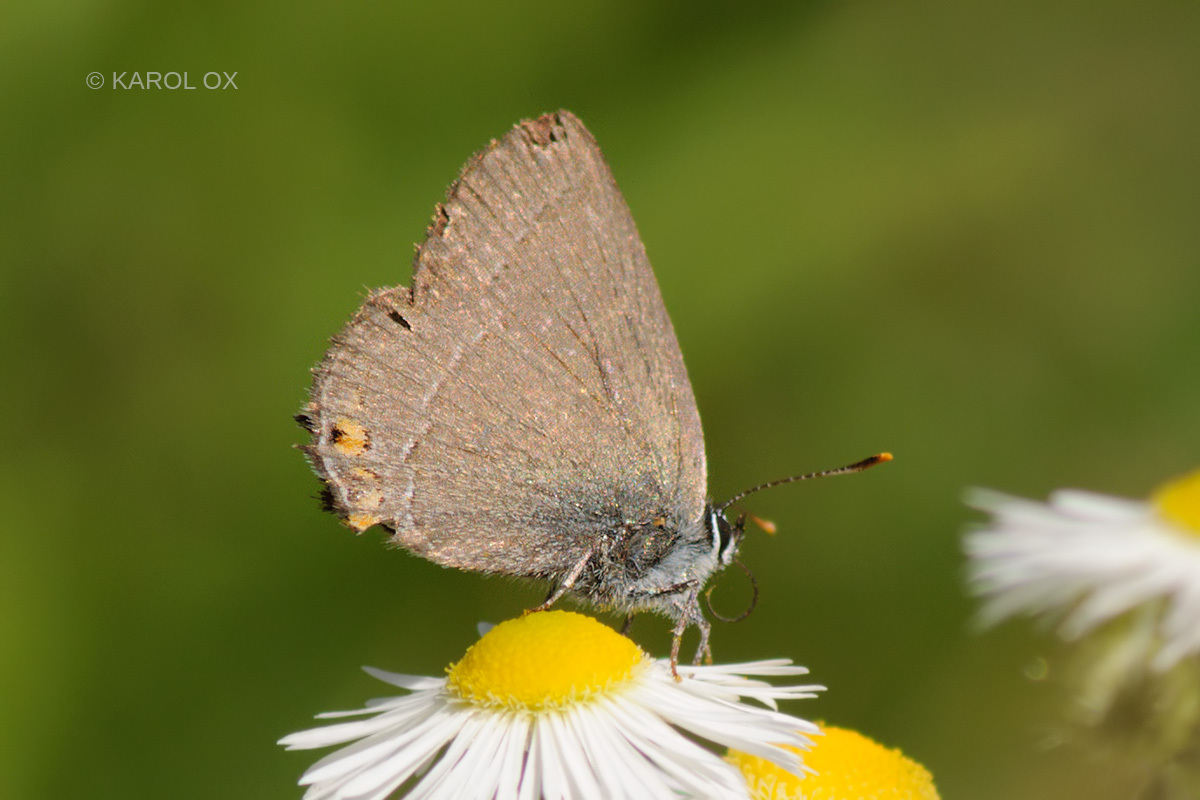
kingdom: Animalia
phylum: Arthropoda
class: Insecta
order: Lepidoptera
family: Lycaenidae
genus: Strymon
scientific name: Strymon acaciae
